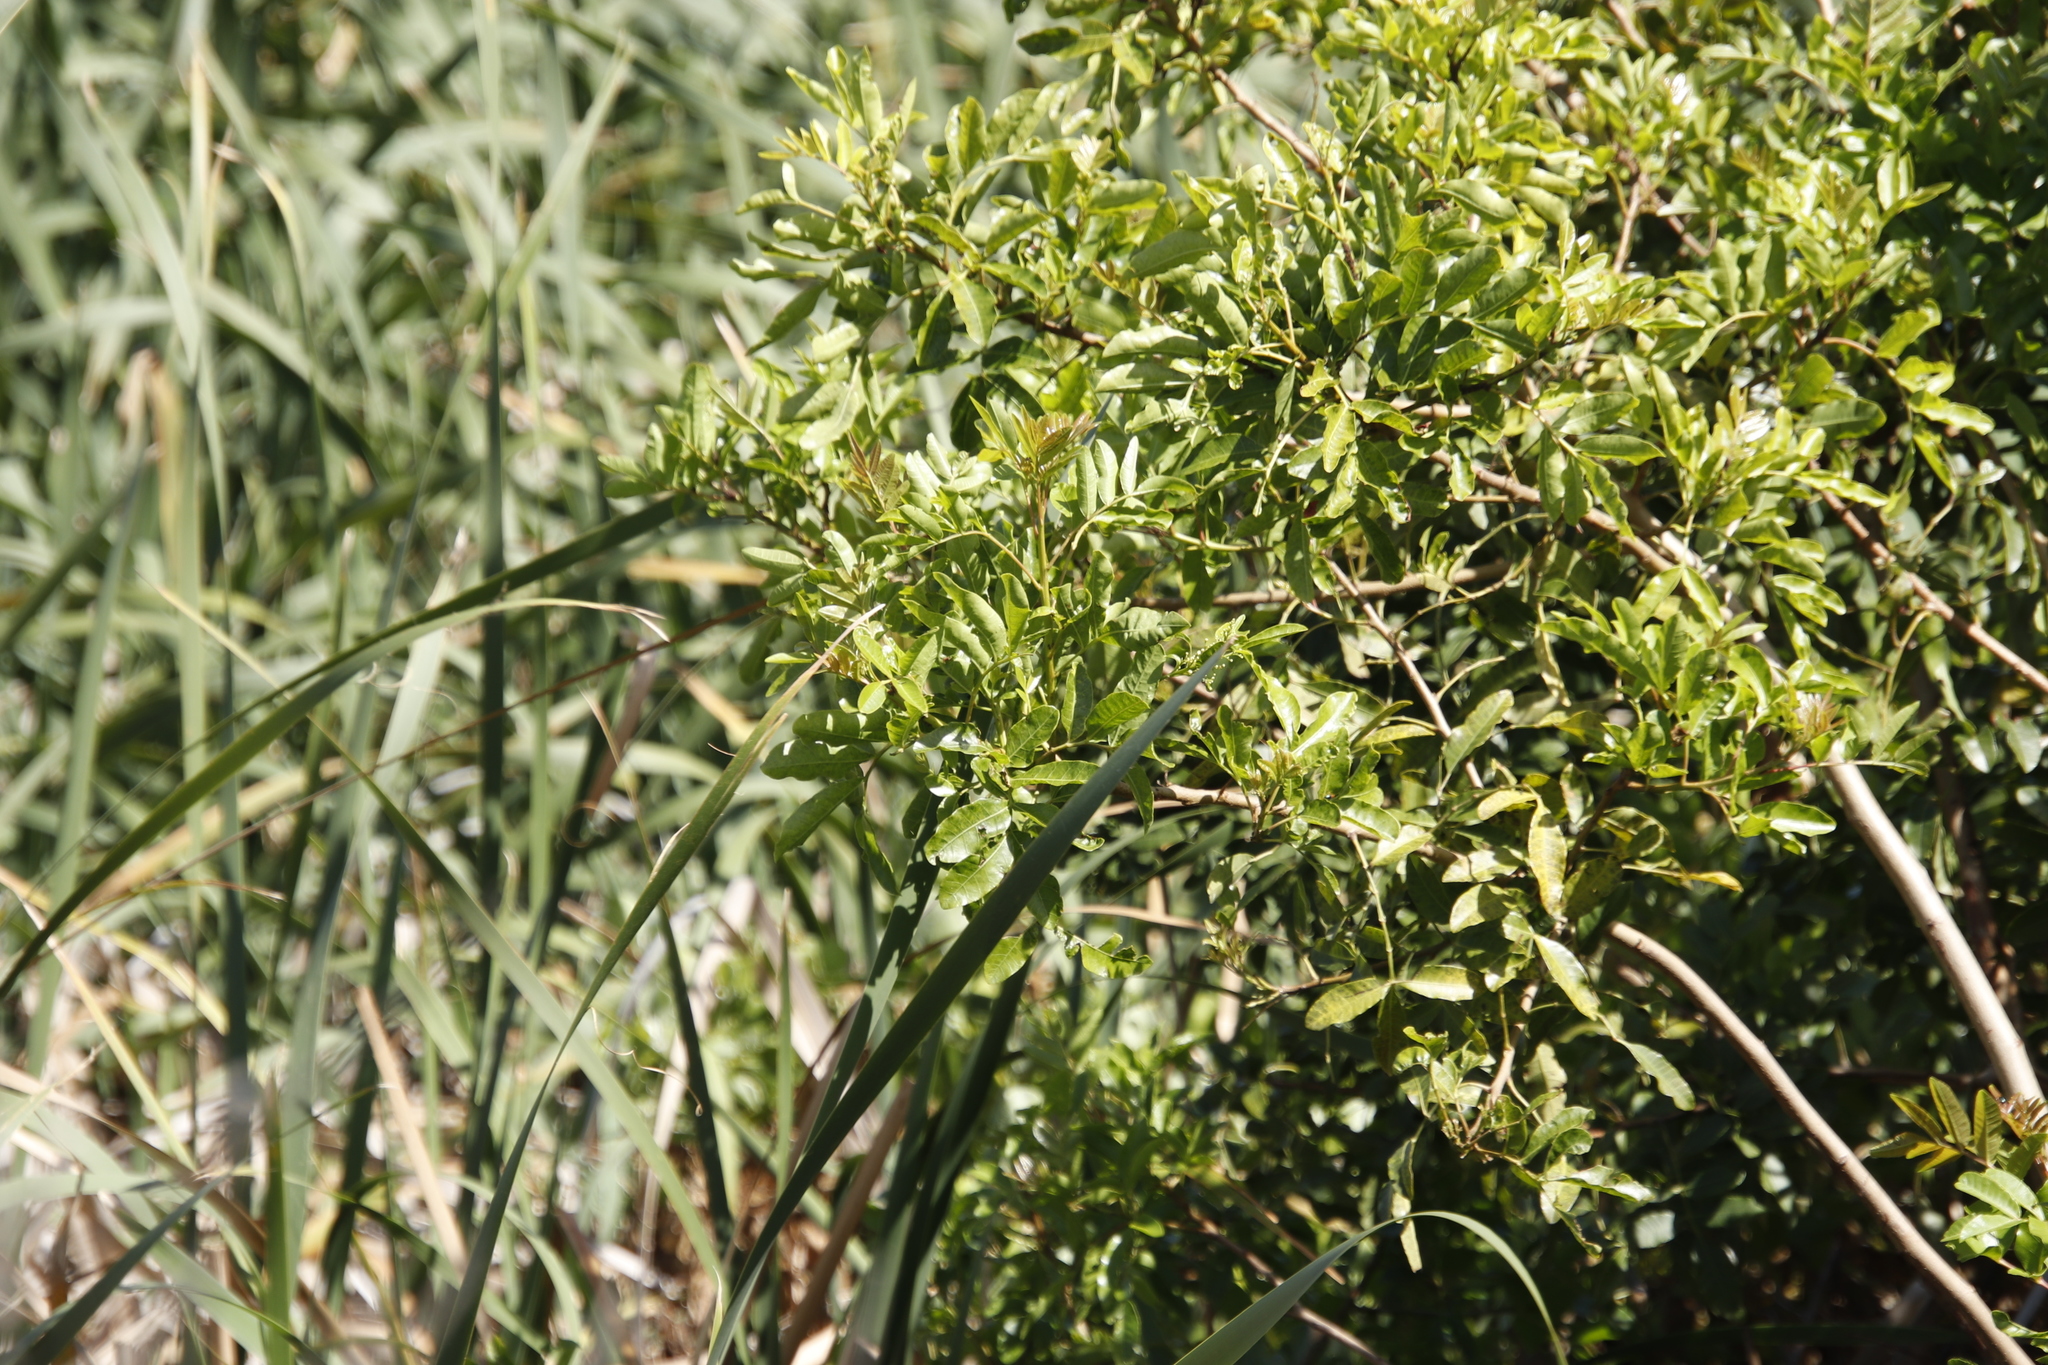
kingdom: Plantae
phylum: Tracheophyta
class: Magnoliopsida
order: Sapindales
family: Anacardiaceae
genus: Schinus
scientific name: Schinus terebinthifolia
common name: Brazilian peppertree
